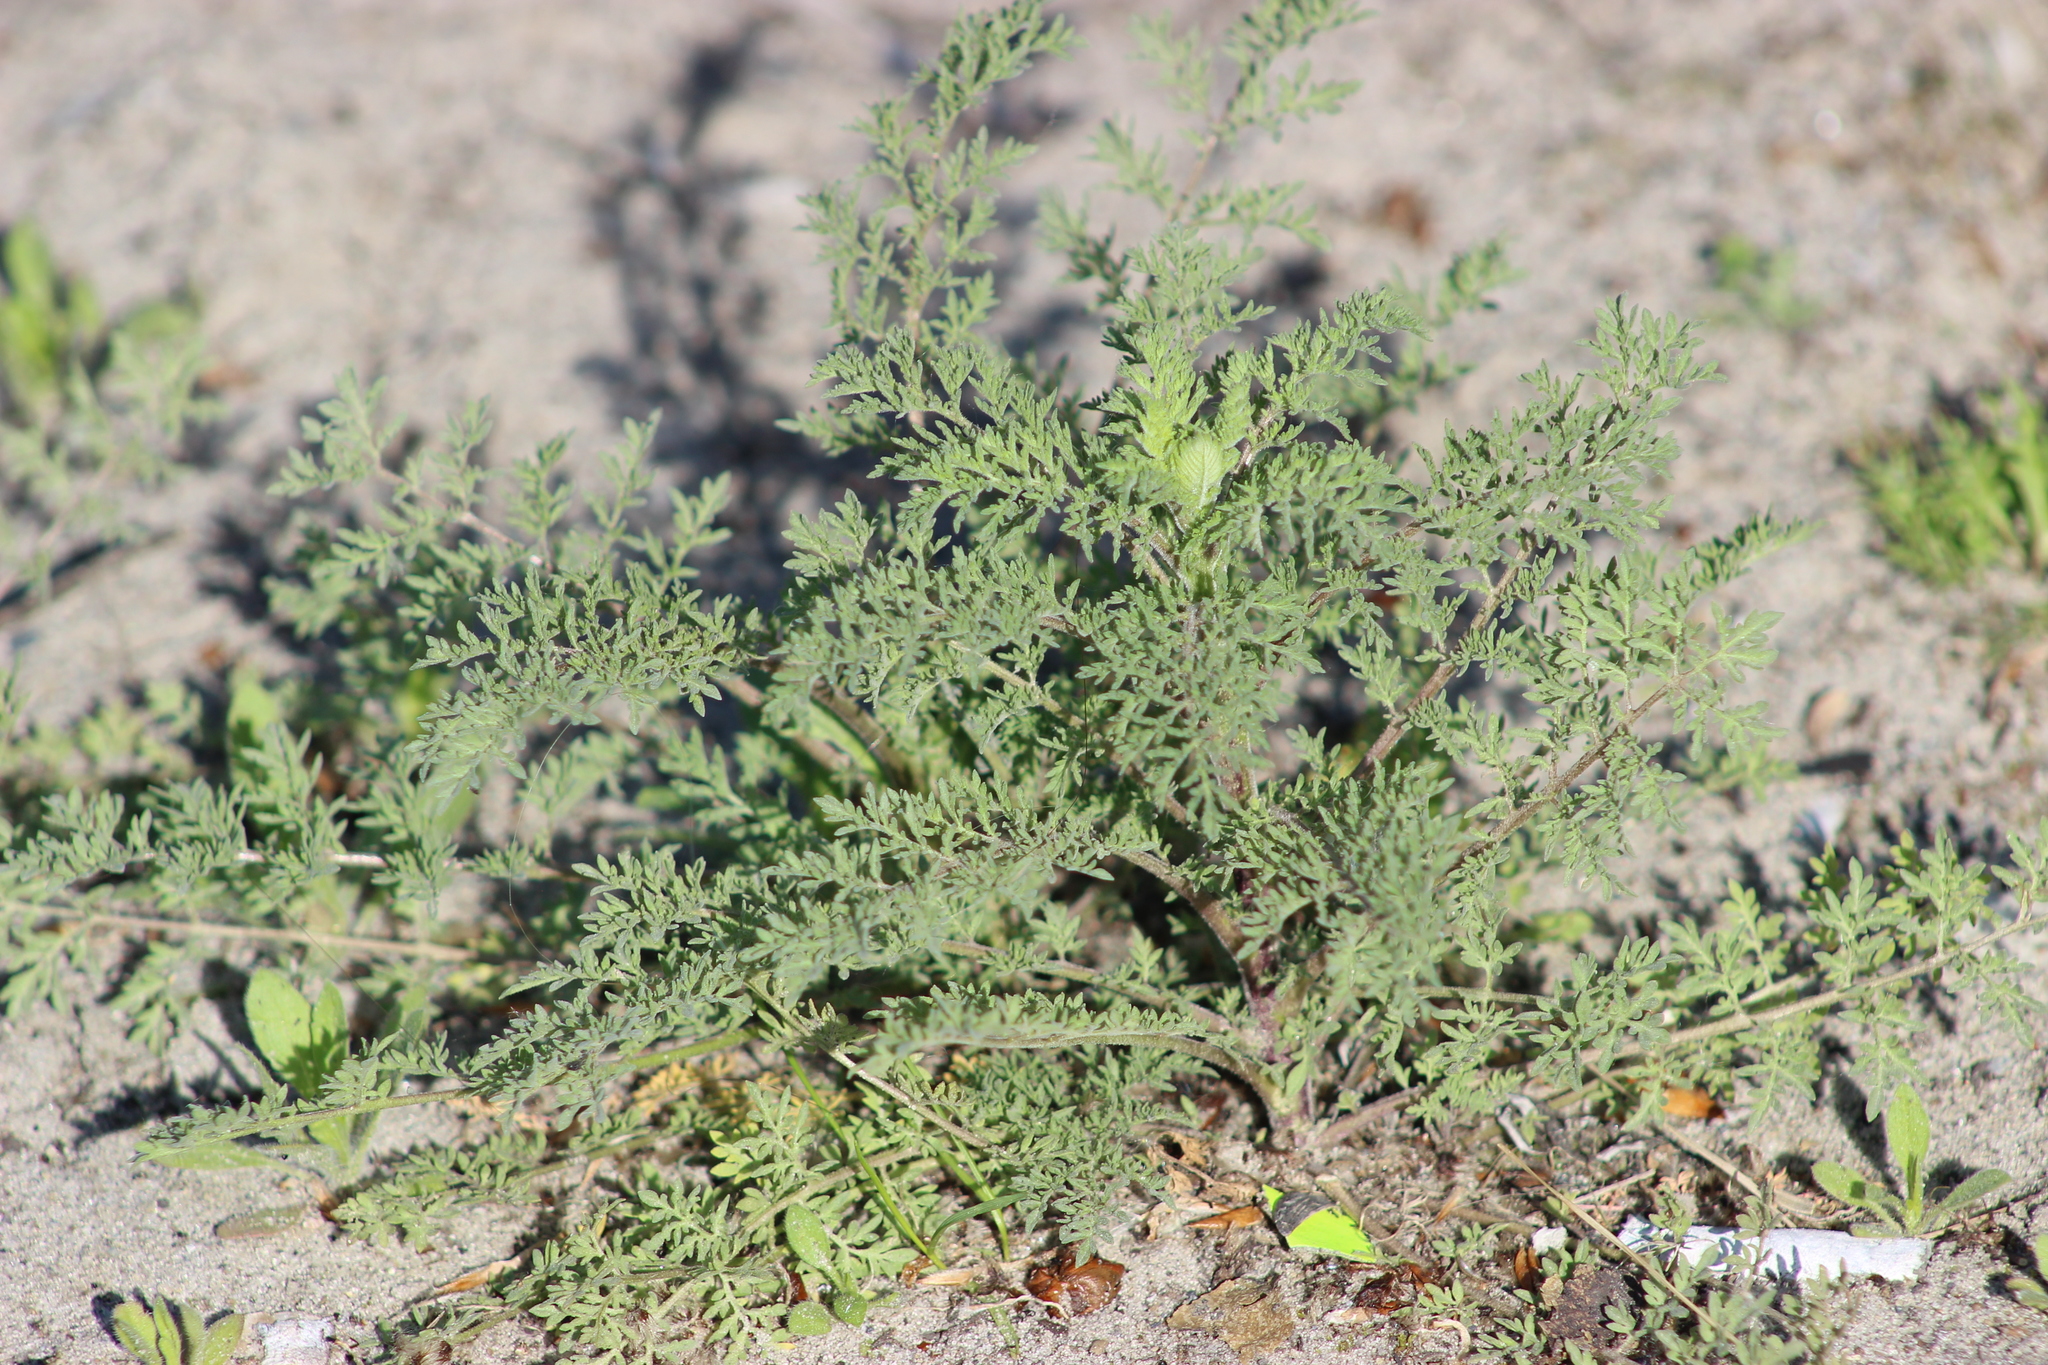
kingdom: Plantae
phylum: Tracheophyta
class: Magnoliopsida
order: Brassicales
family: Brassicaceae
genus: Descurainia
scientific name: Descurainia sophia
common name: Flixweed
